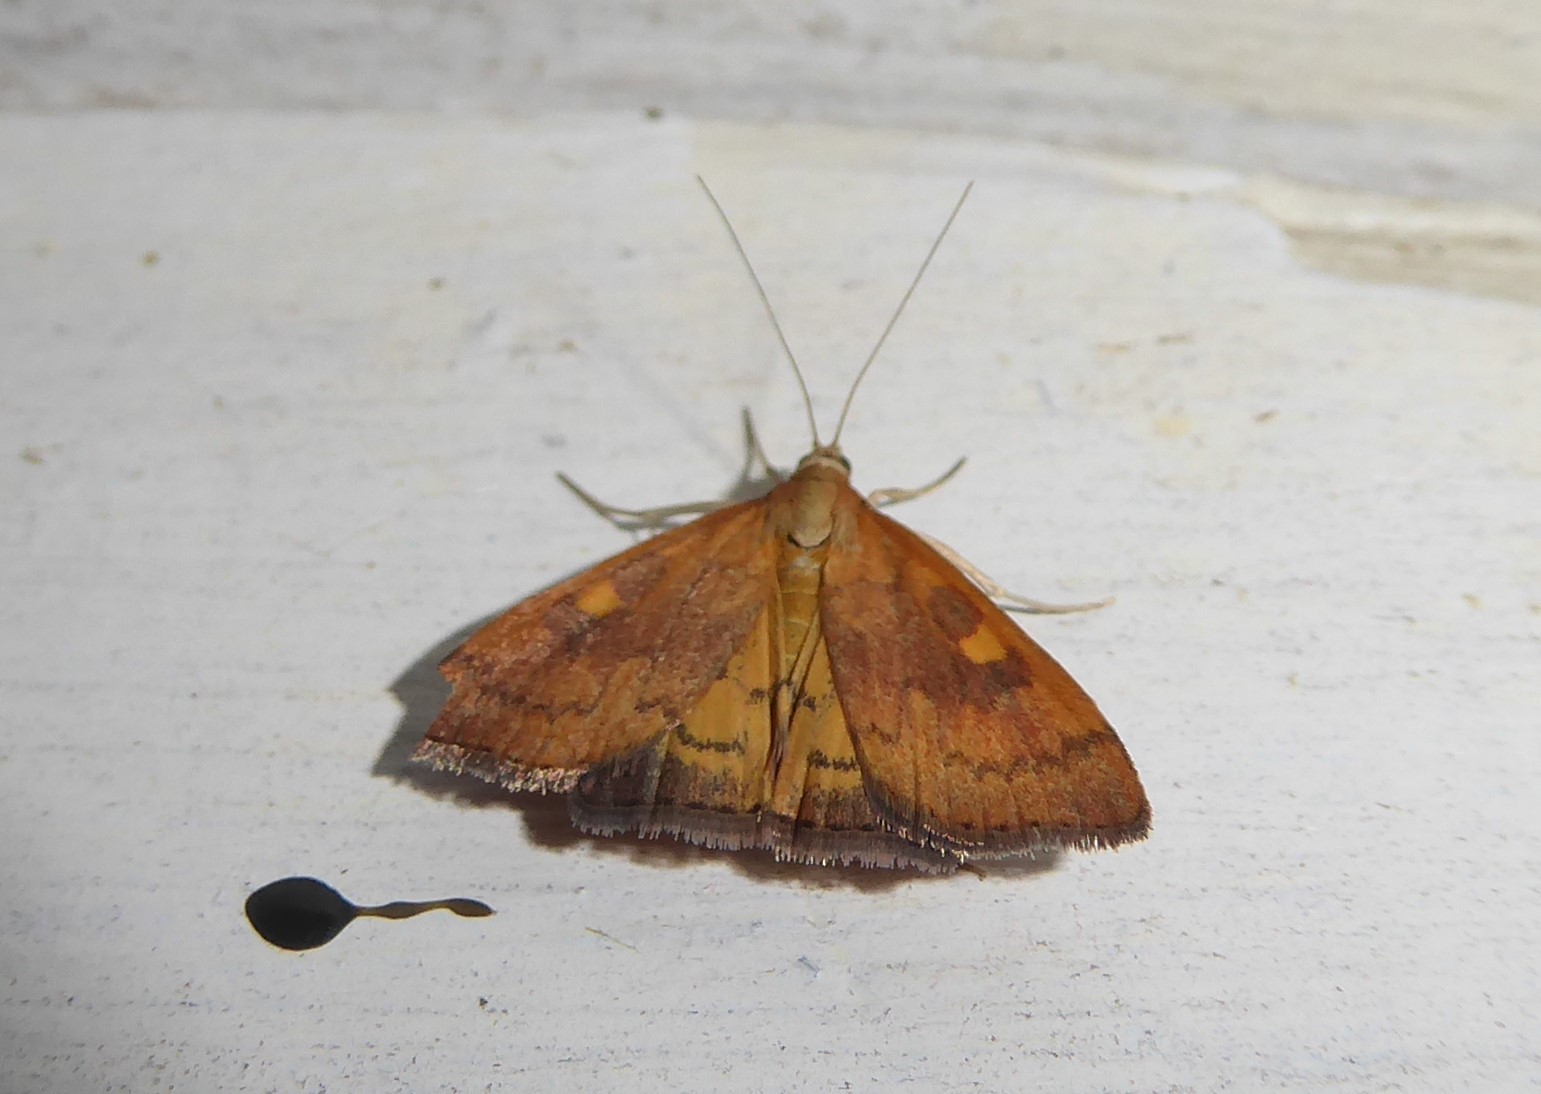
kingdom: Animalia
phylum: Arthropoda
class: Insecta
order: Lepidoptera
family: Crambidae
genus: Udea
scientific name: Udea Mnesictena flavidalis
